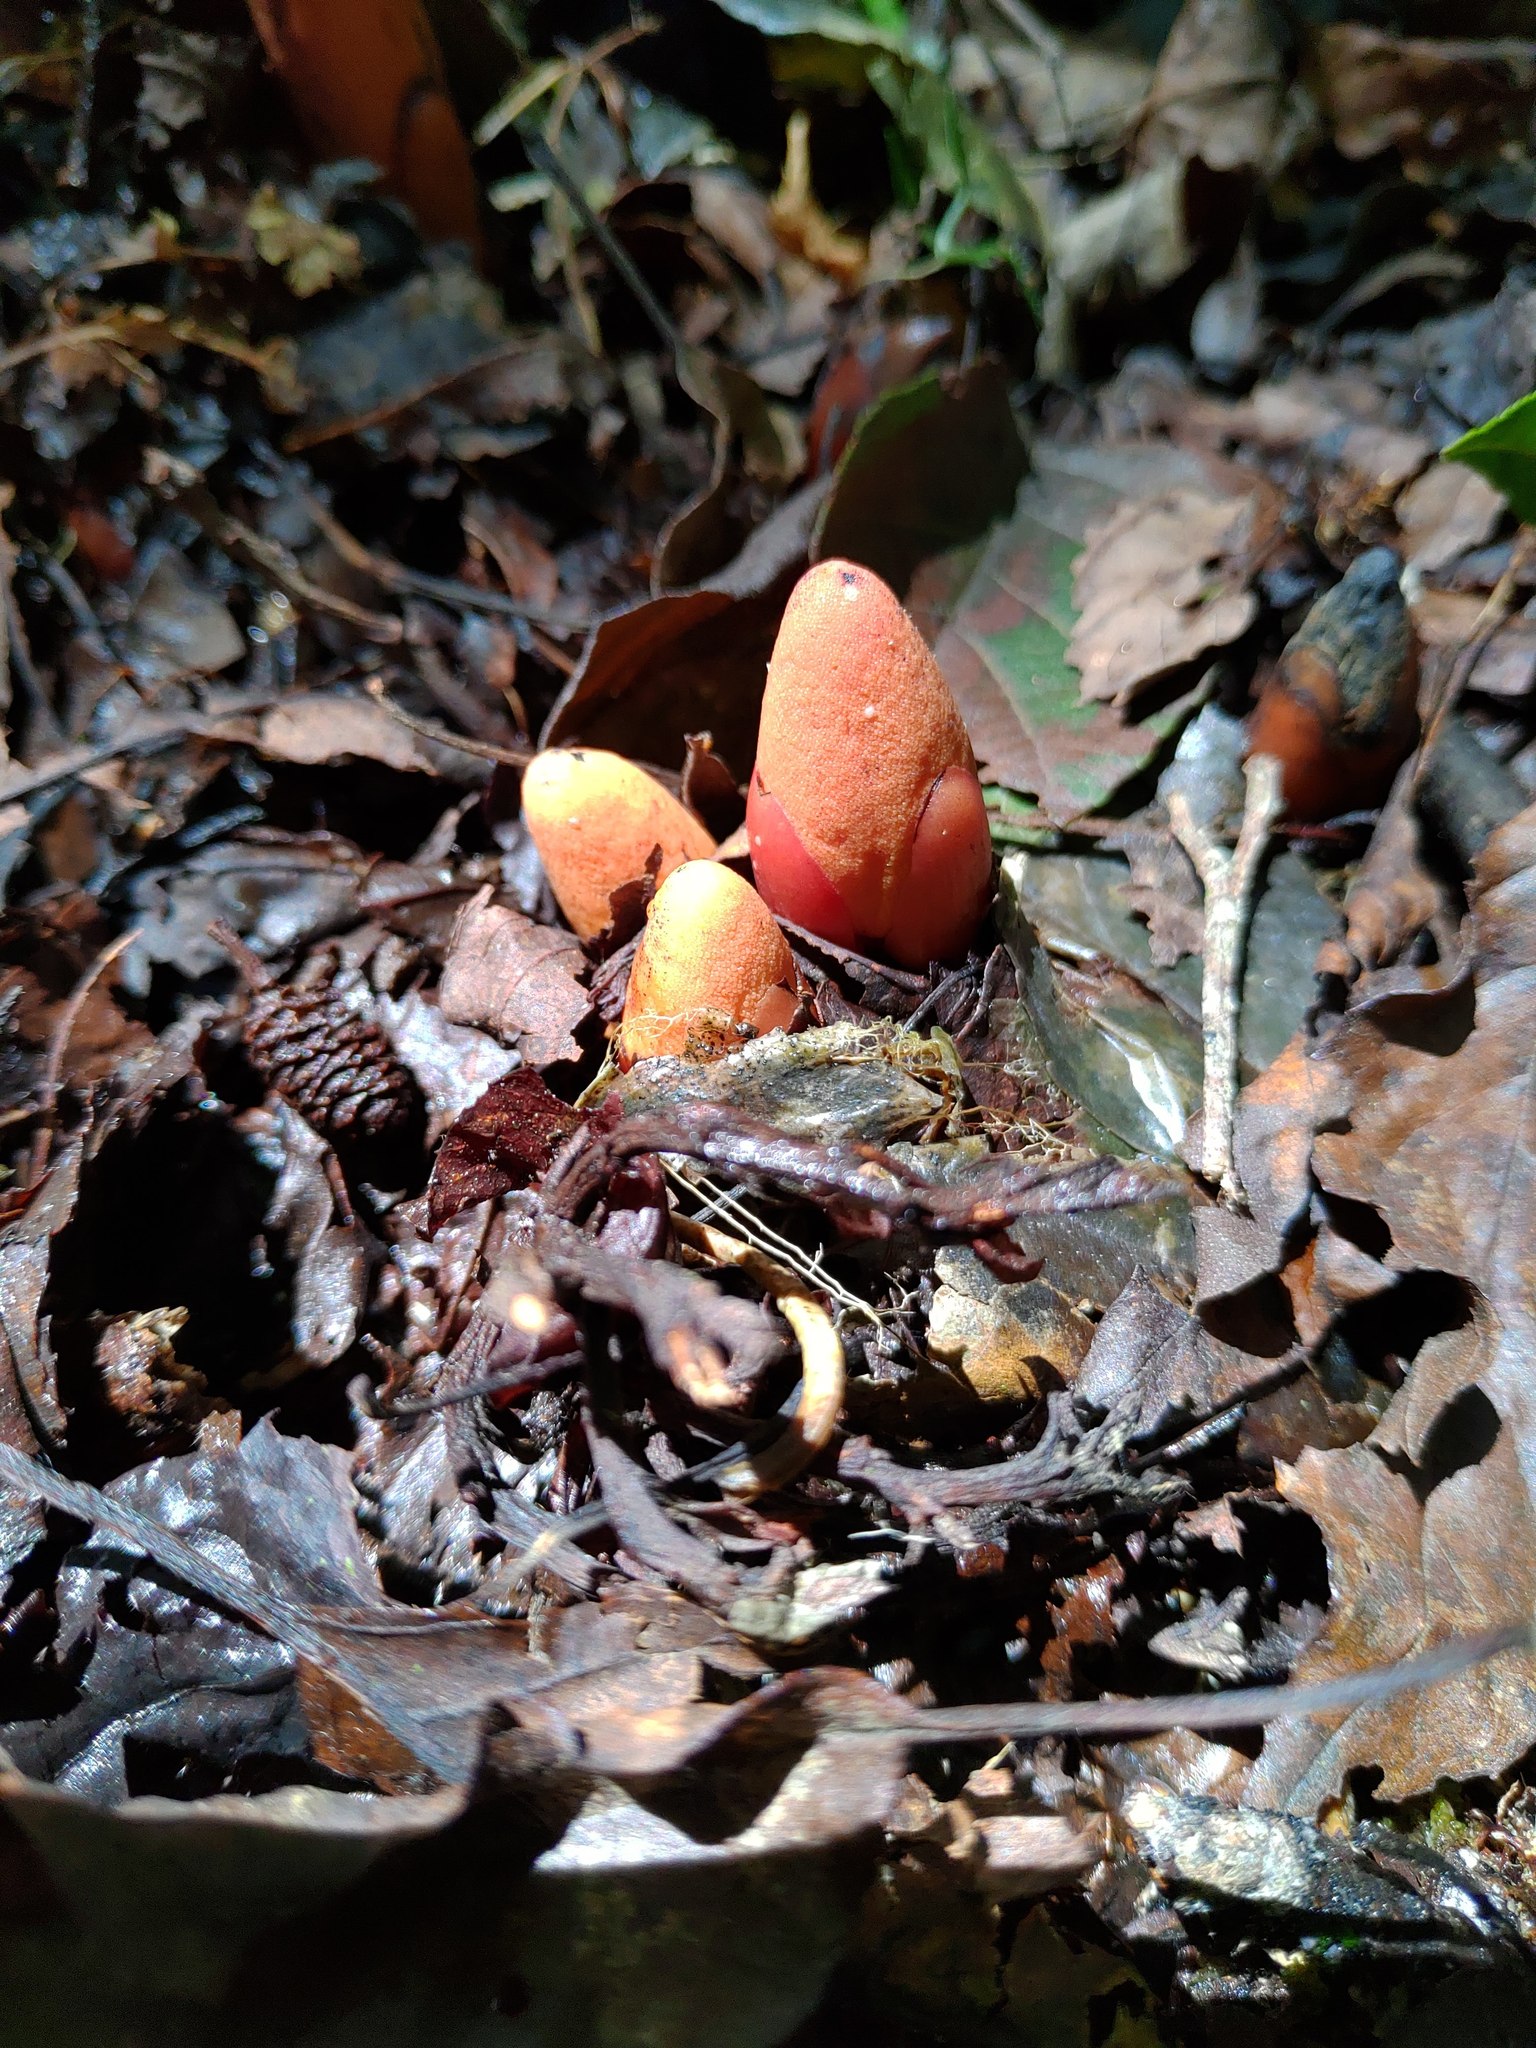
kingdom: Plantae
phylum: Tracheophyta
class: Magnoliopsida
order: Santalales
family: Balanophoraceae
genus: Balanophora
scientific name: Balanophora laxiflora
